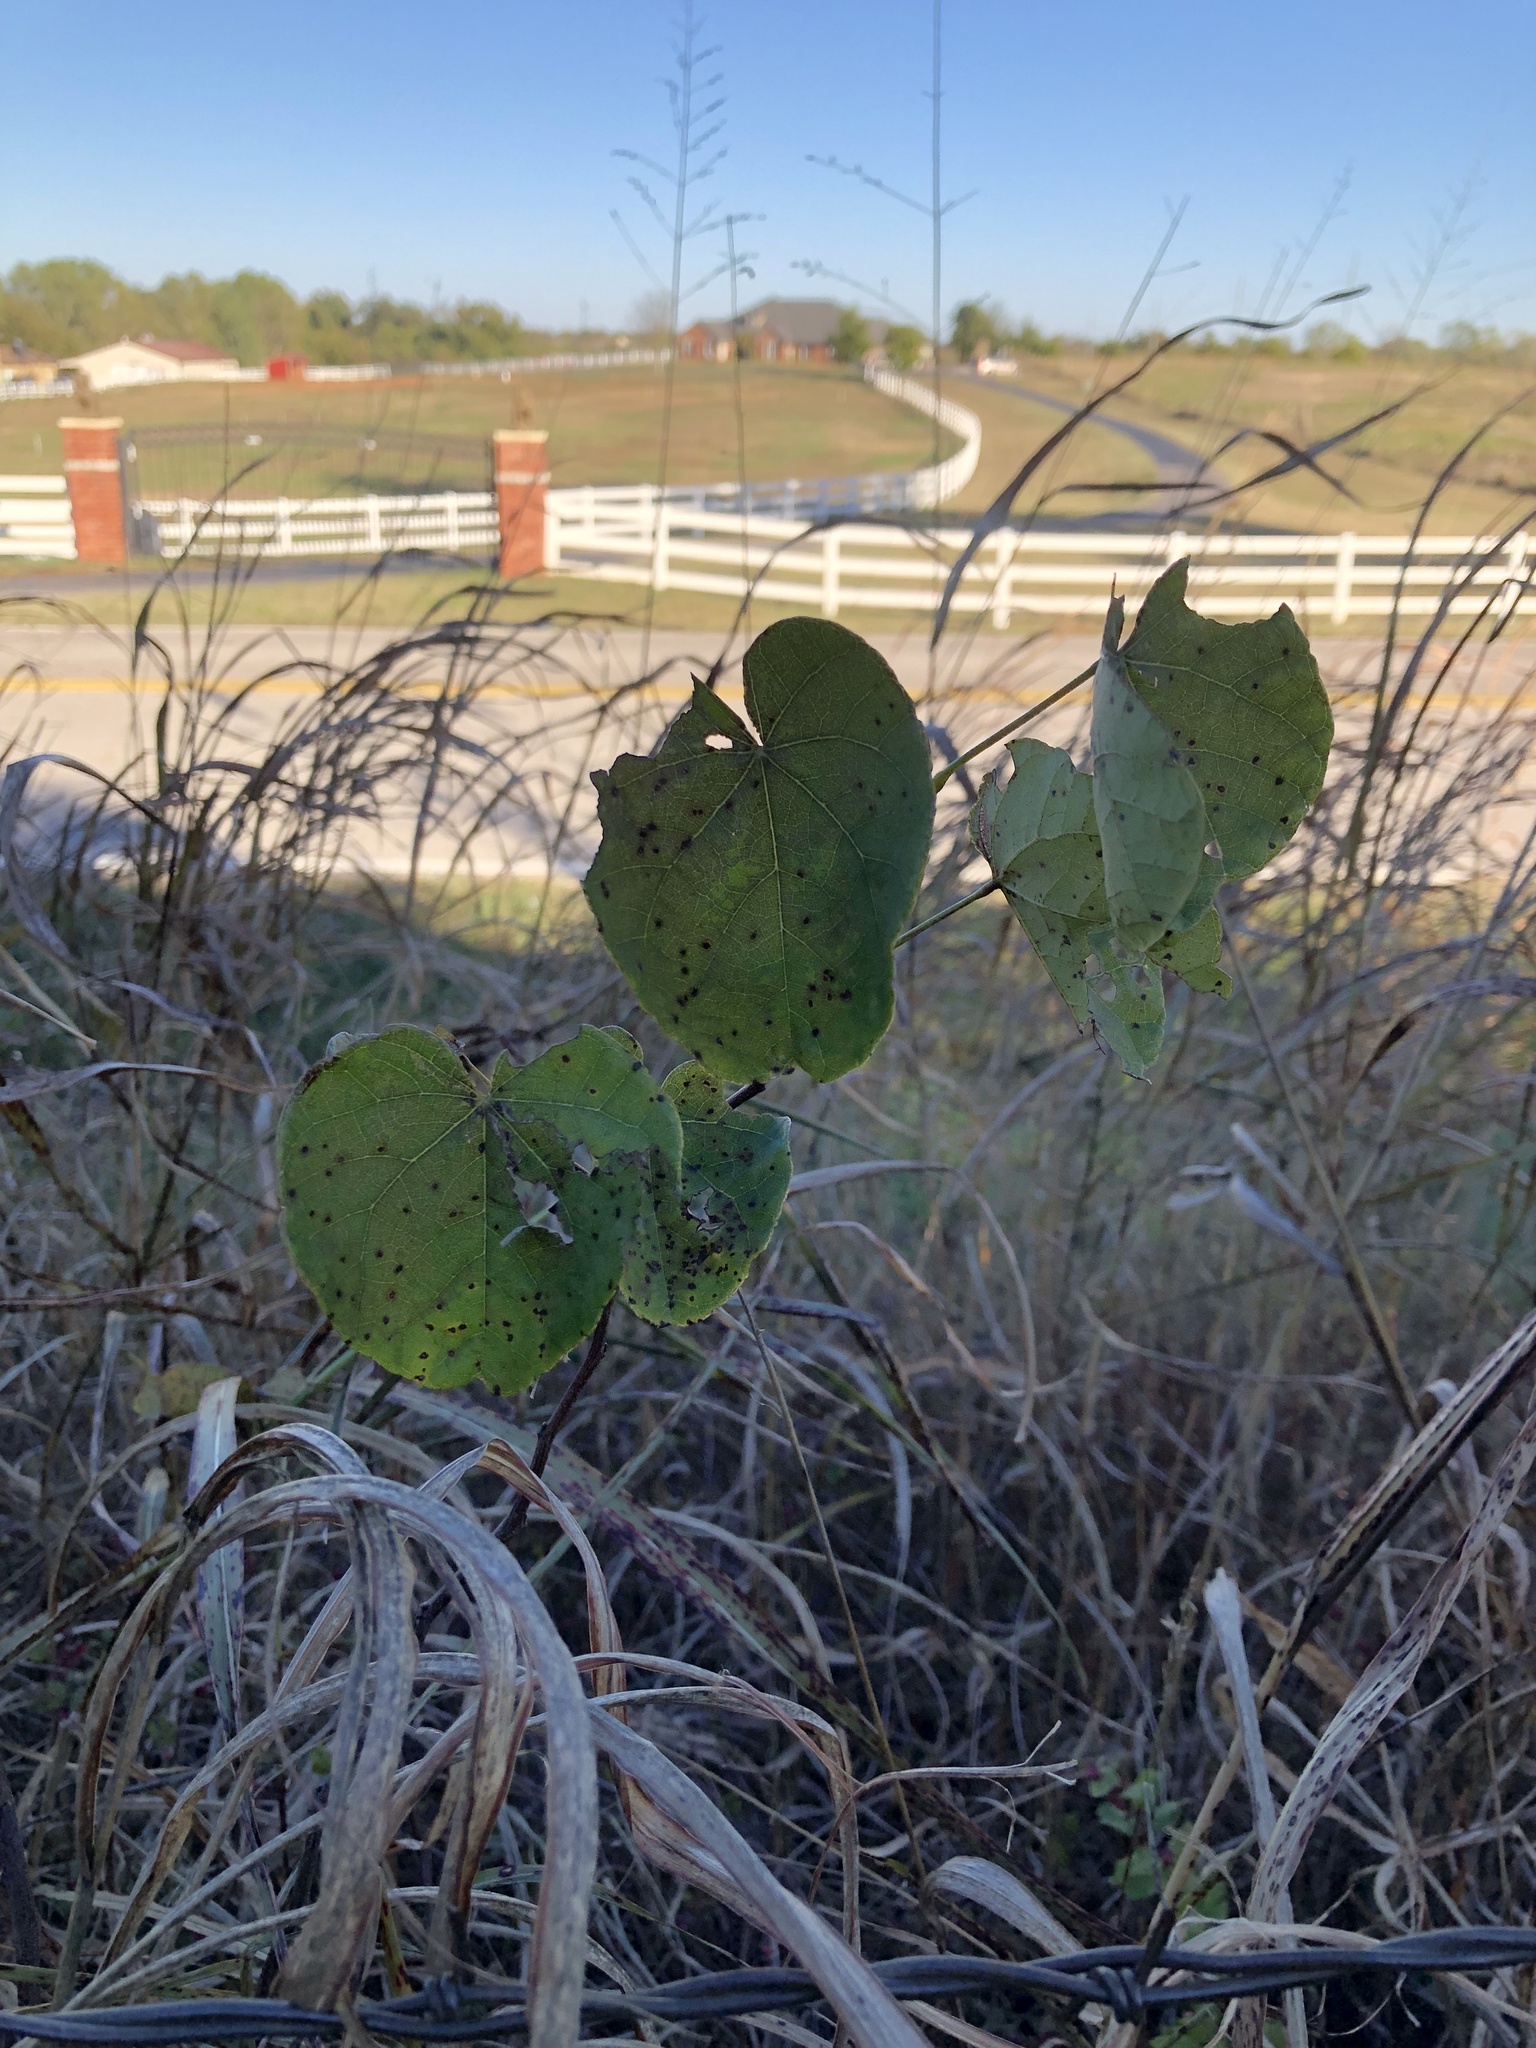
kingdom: Plantae
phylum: Tracheophyta
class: Magnoliopsida
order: Fabales
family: Fabaceae
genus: Cercis
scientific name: Cercis canadensis
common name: Eastern redbud
